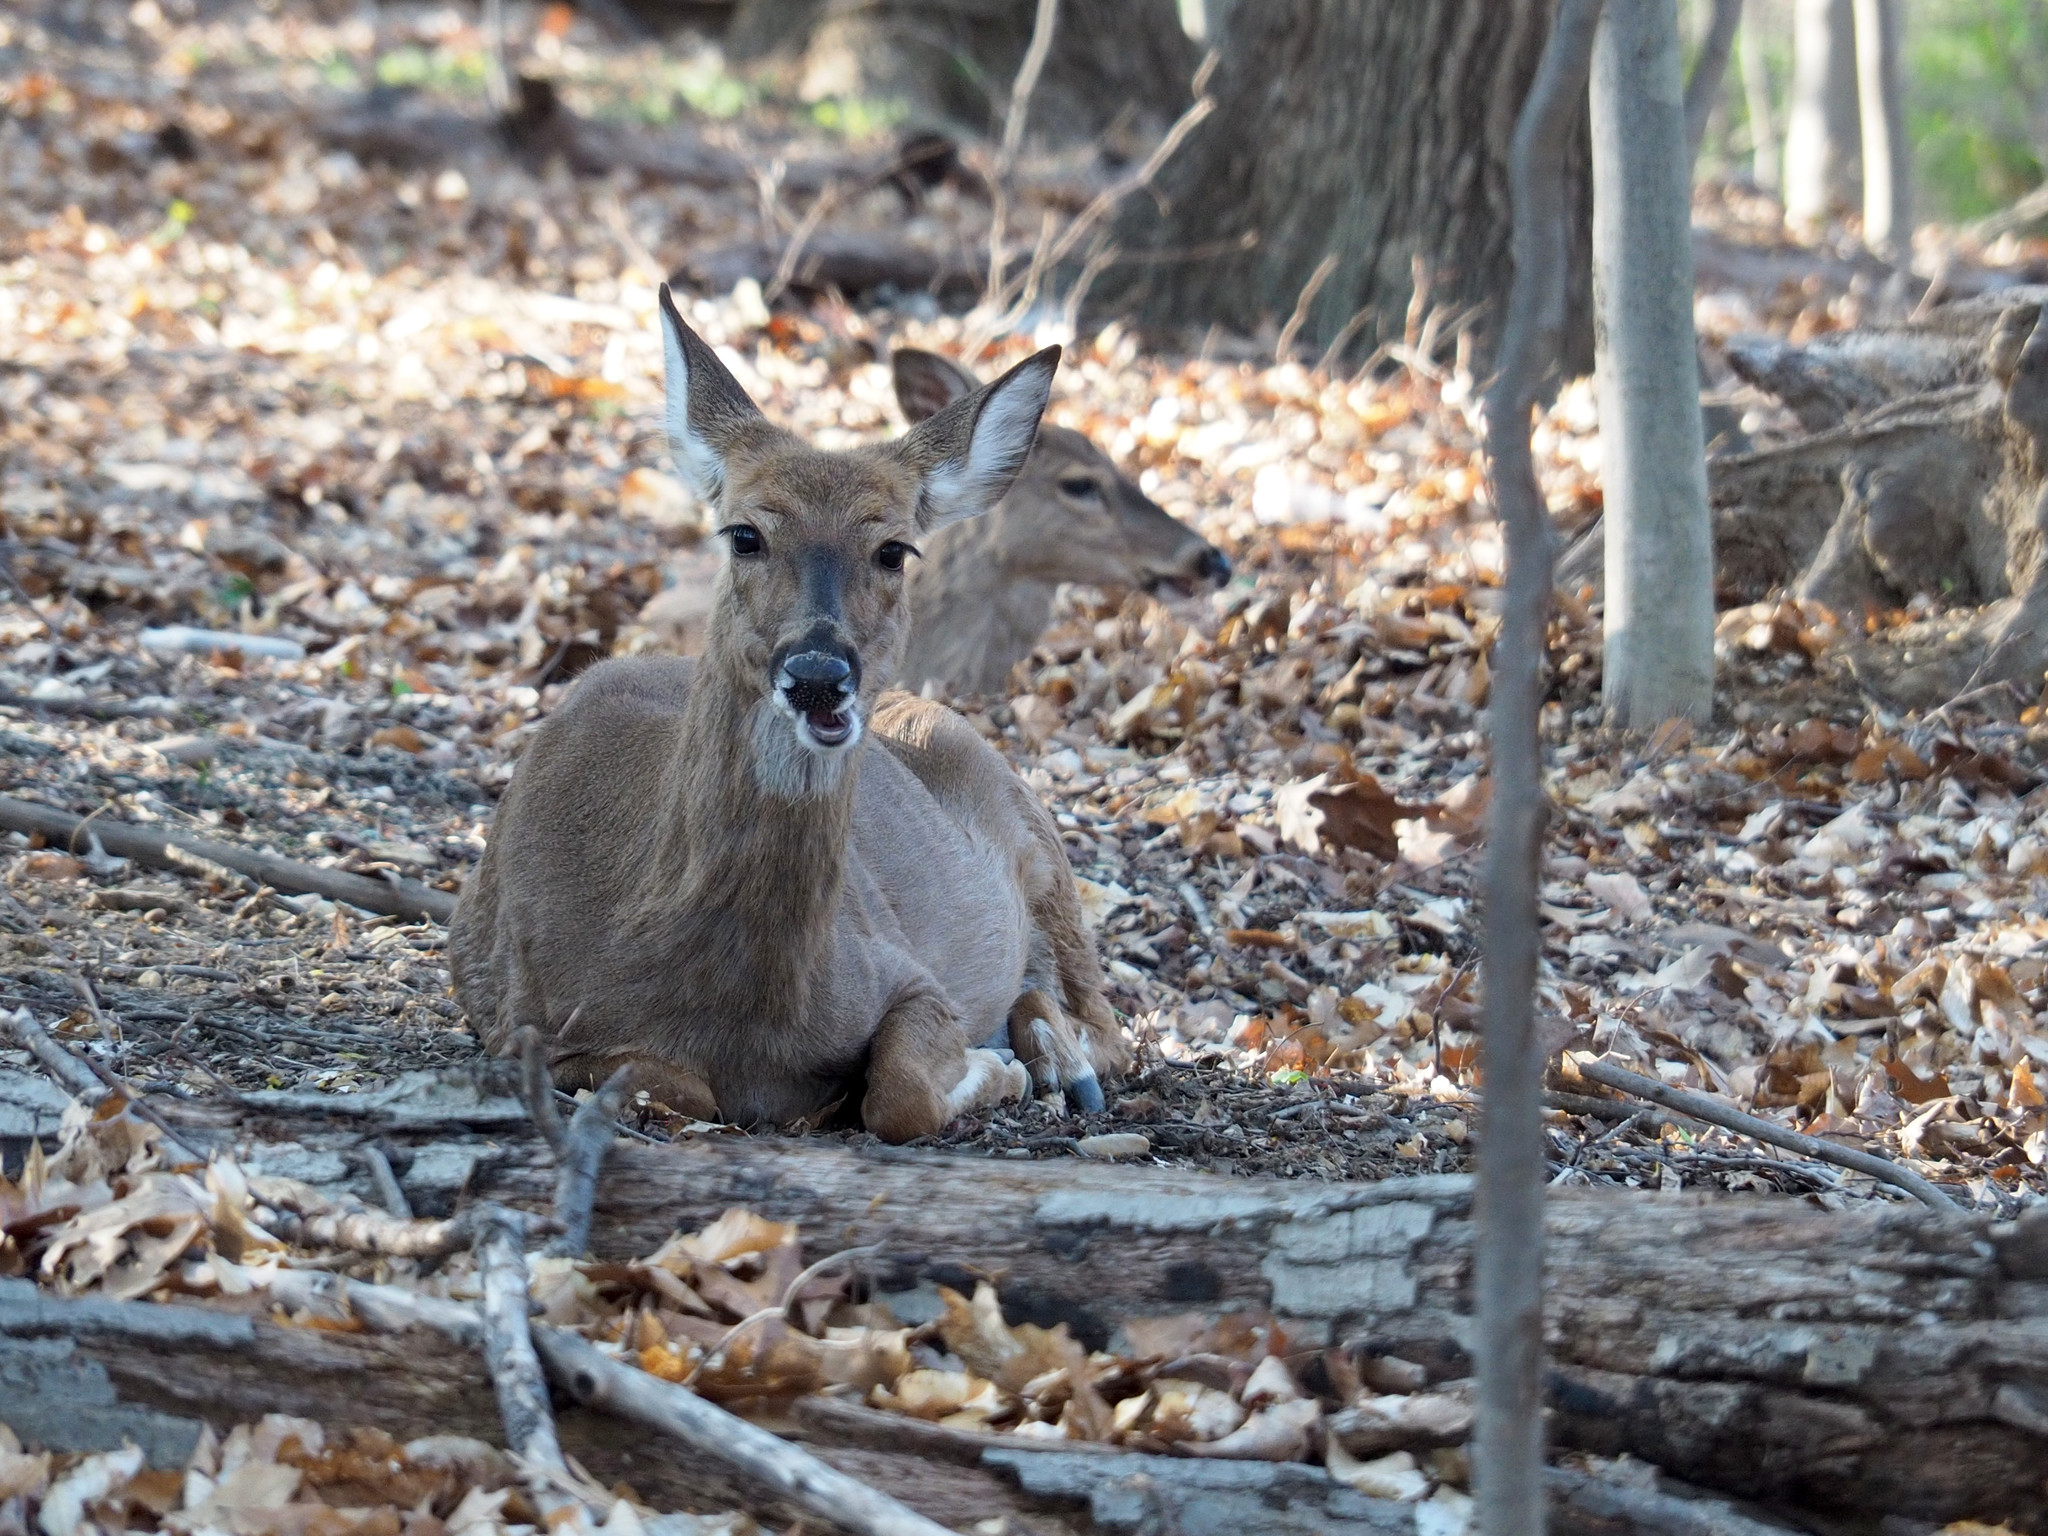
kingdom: Animalia
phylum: Chordata
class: Mammalia
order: Artiodactyla
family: Cervidae
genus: Odocoileus
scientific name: Odocoileus virginianus
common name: White-tailed deer
